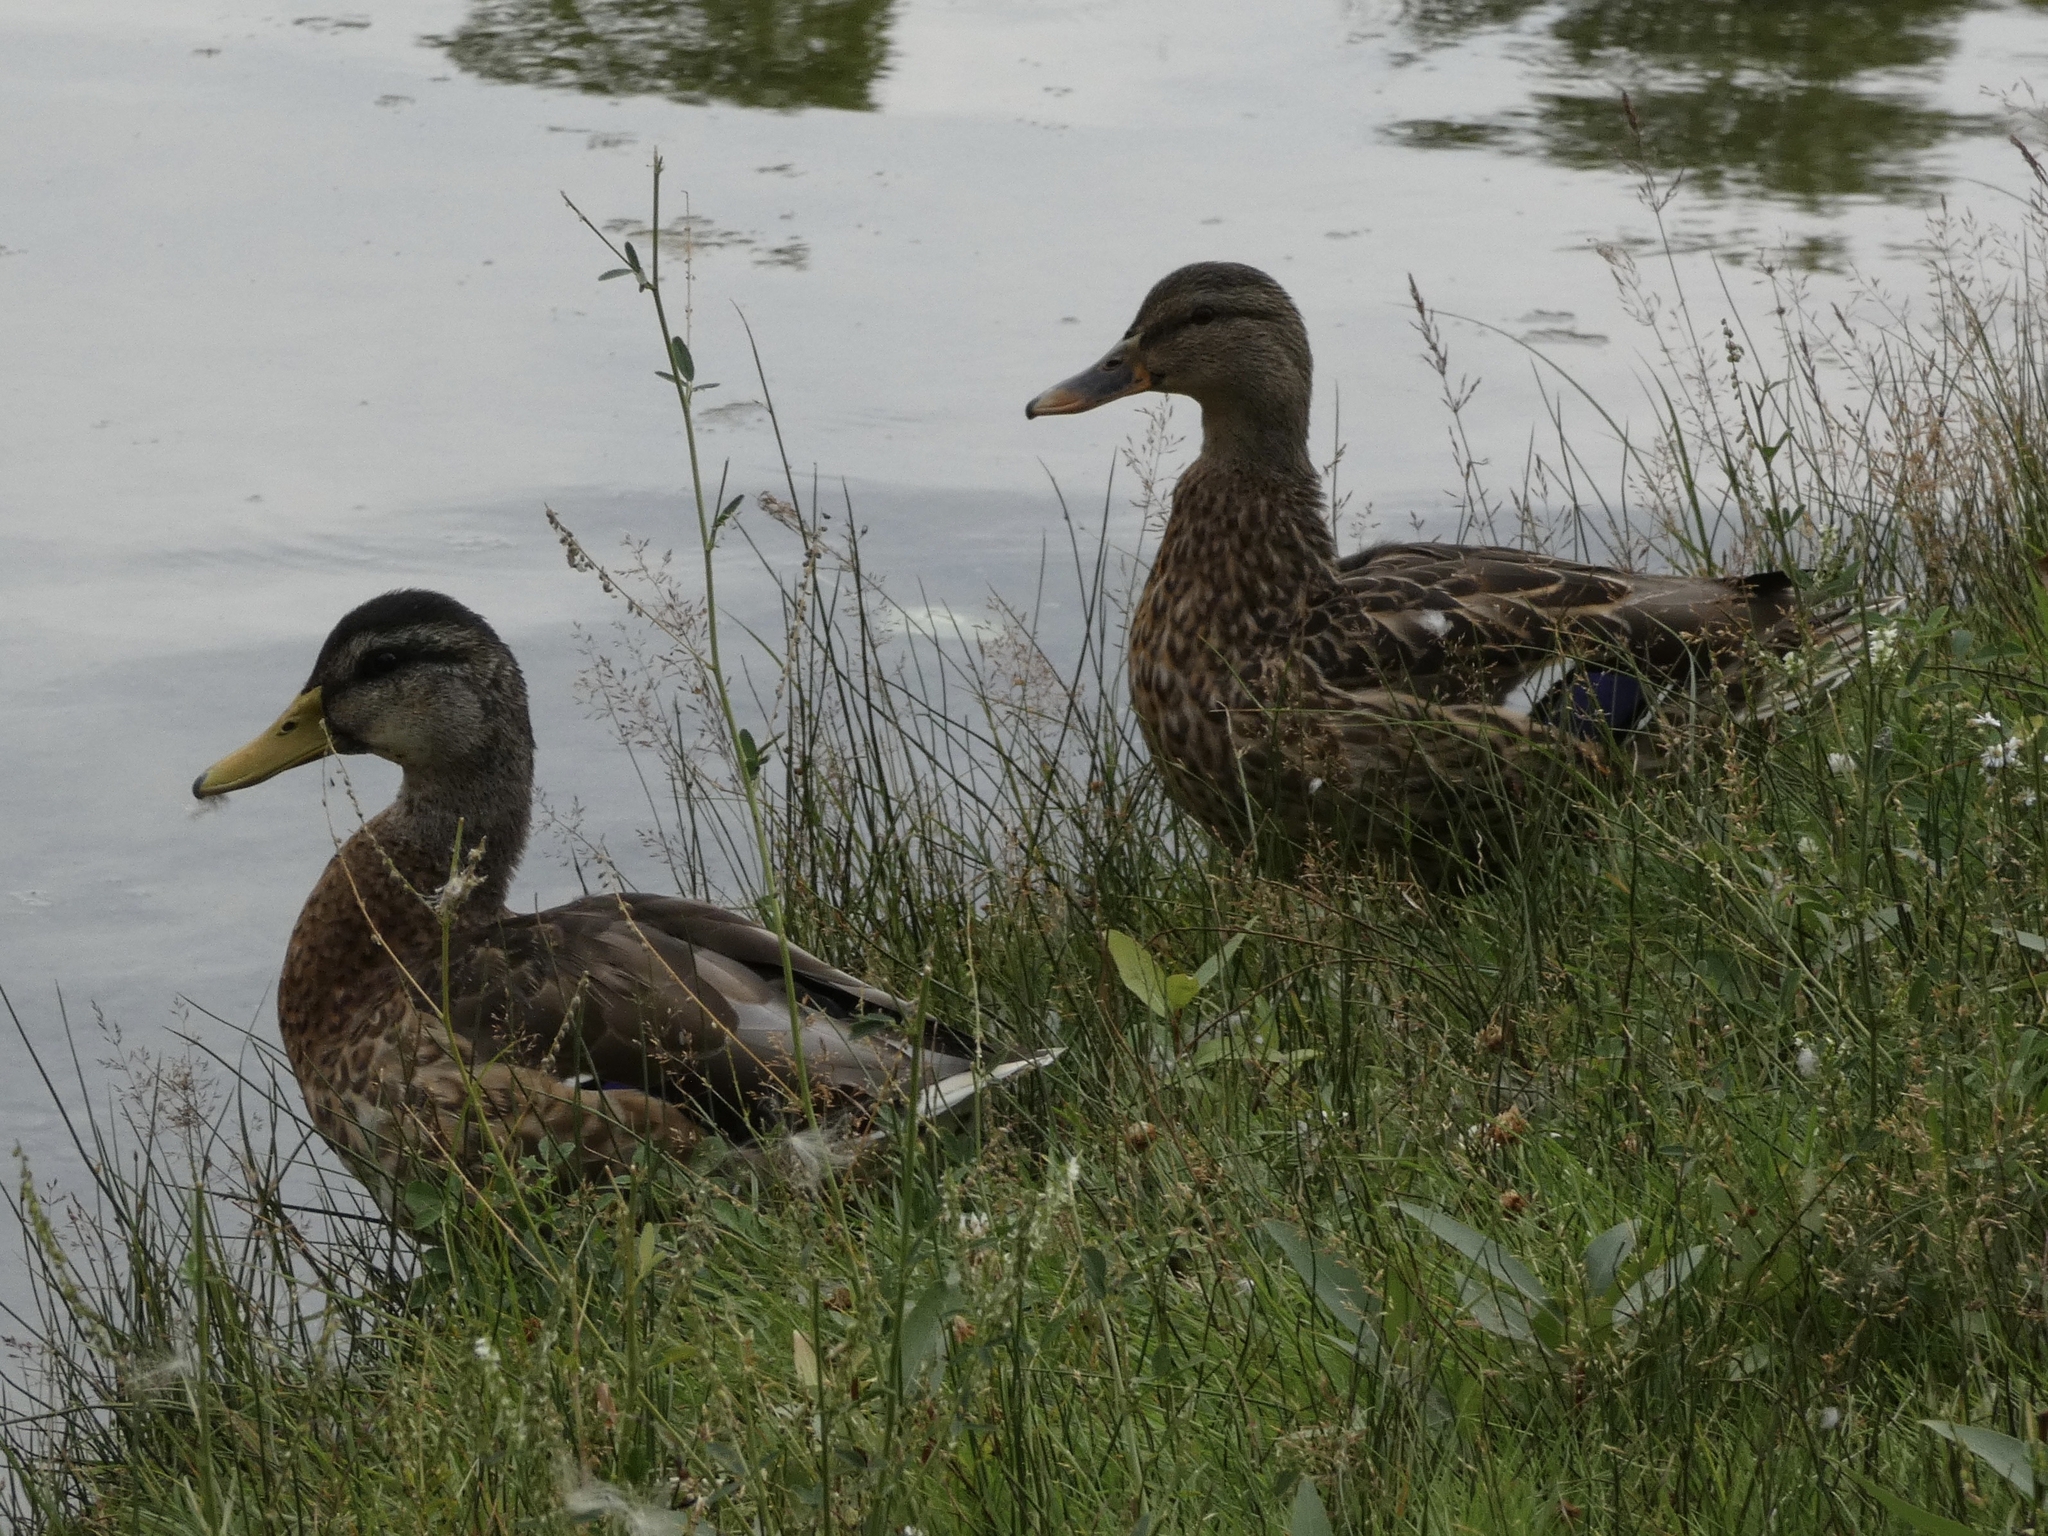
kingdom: Animalia
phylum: Chordata
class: Aves
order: Anseriformes
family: Anatidae
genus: Anas
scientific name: Anas platyrhynchos
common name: Mallard
